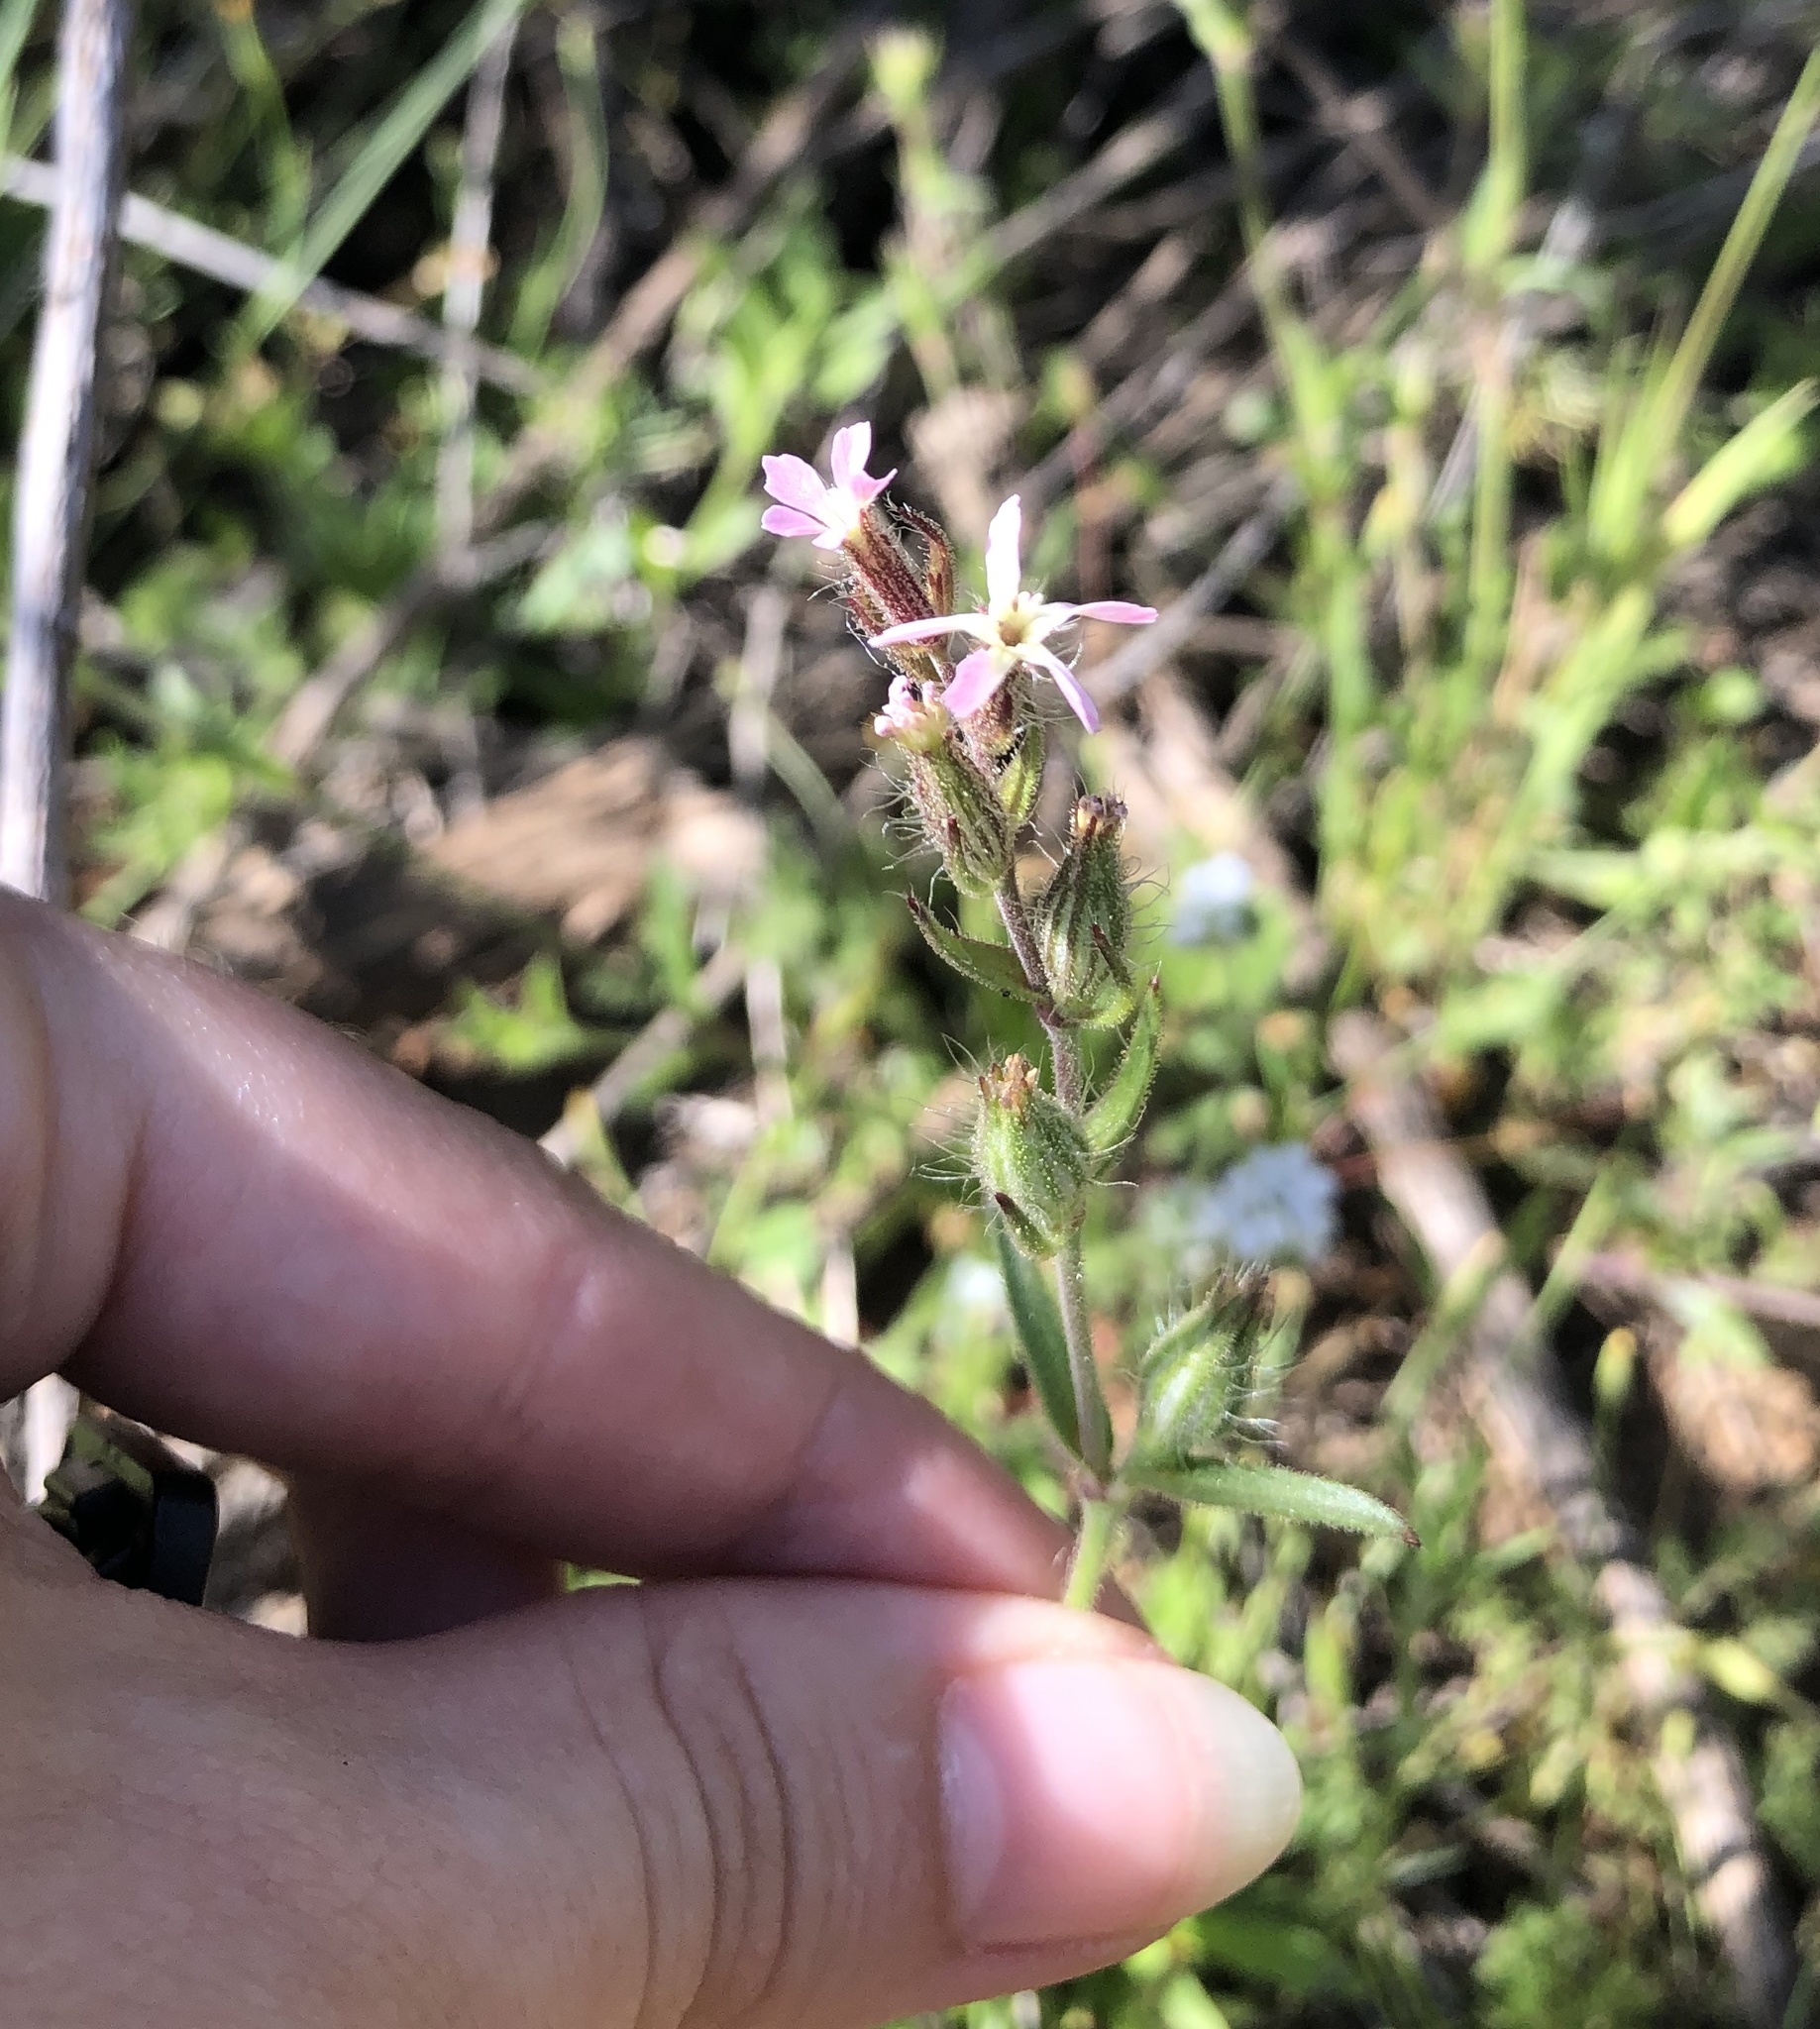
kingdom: Plantae
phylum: Tracheophyta
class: Magnoliopsida
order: Caryophyllales
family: Caryophyllaceae
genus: Silene
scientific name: Silene gallica
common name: Small-flowered catchfly
